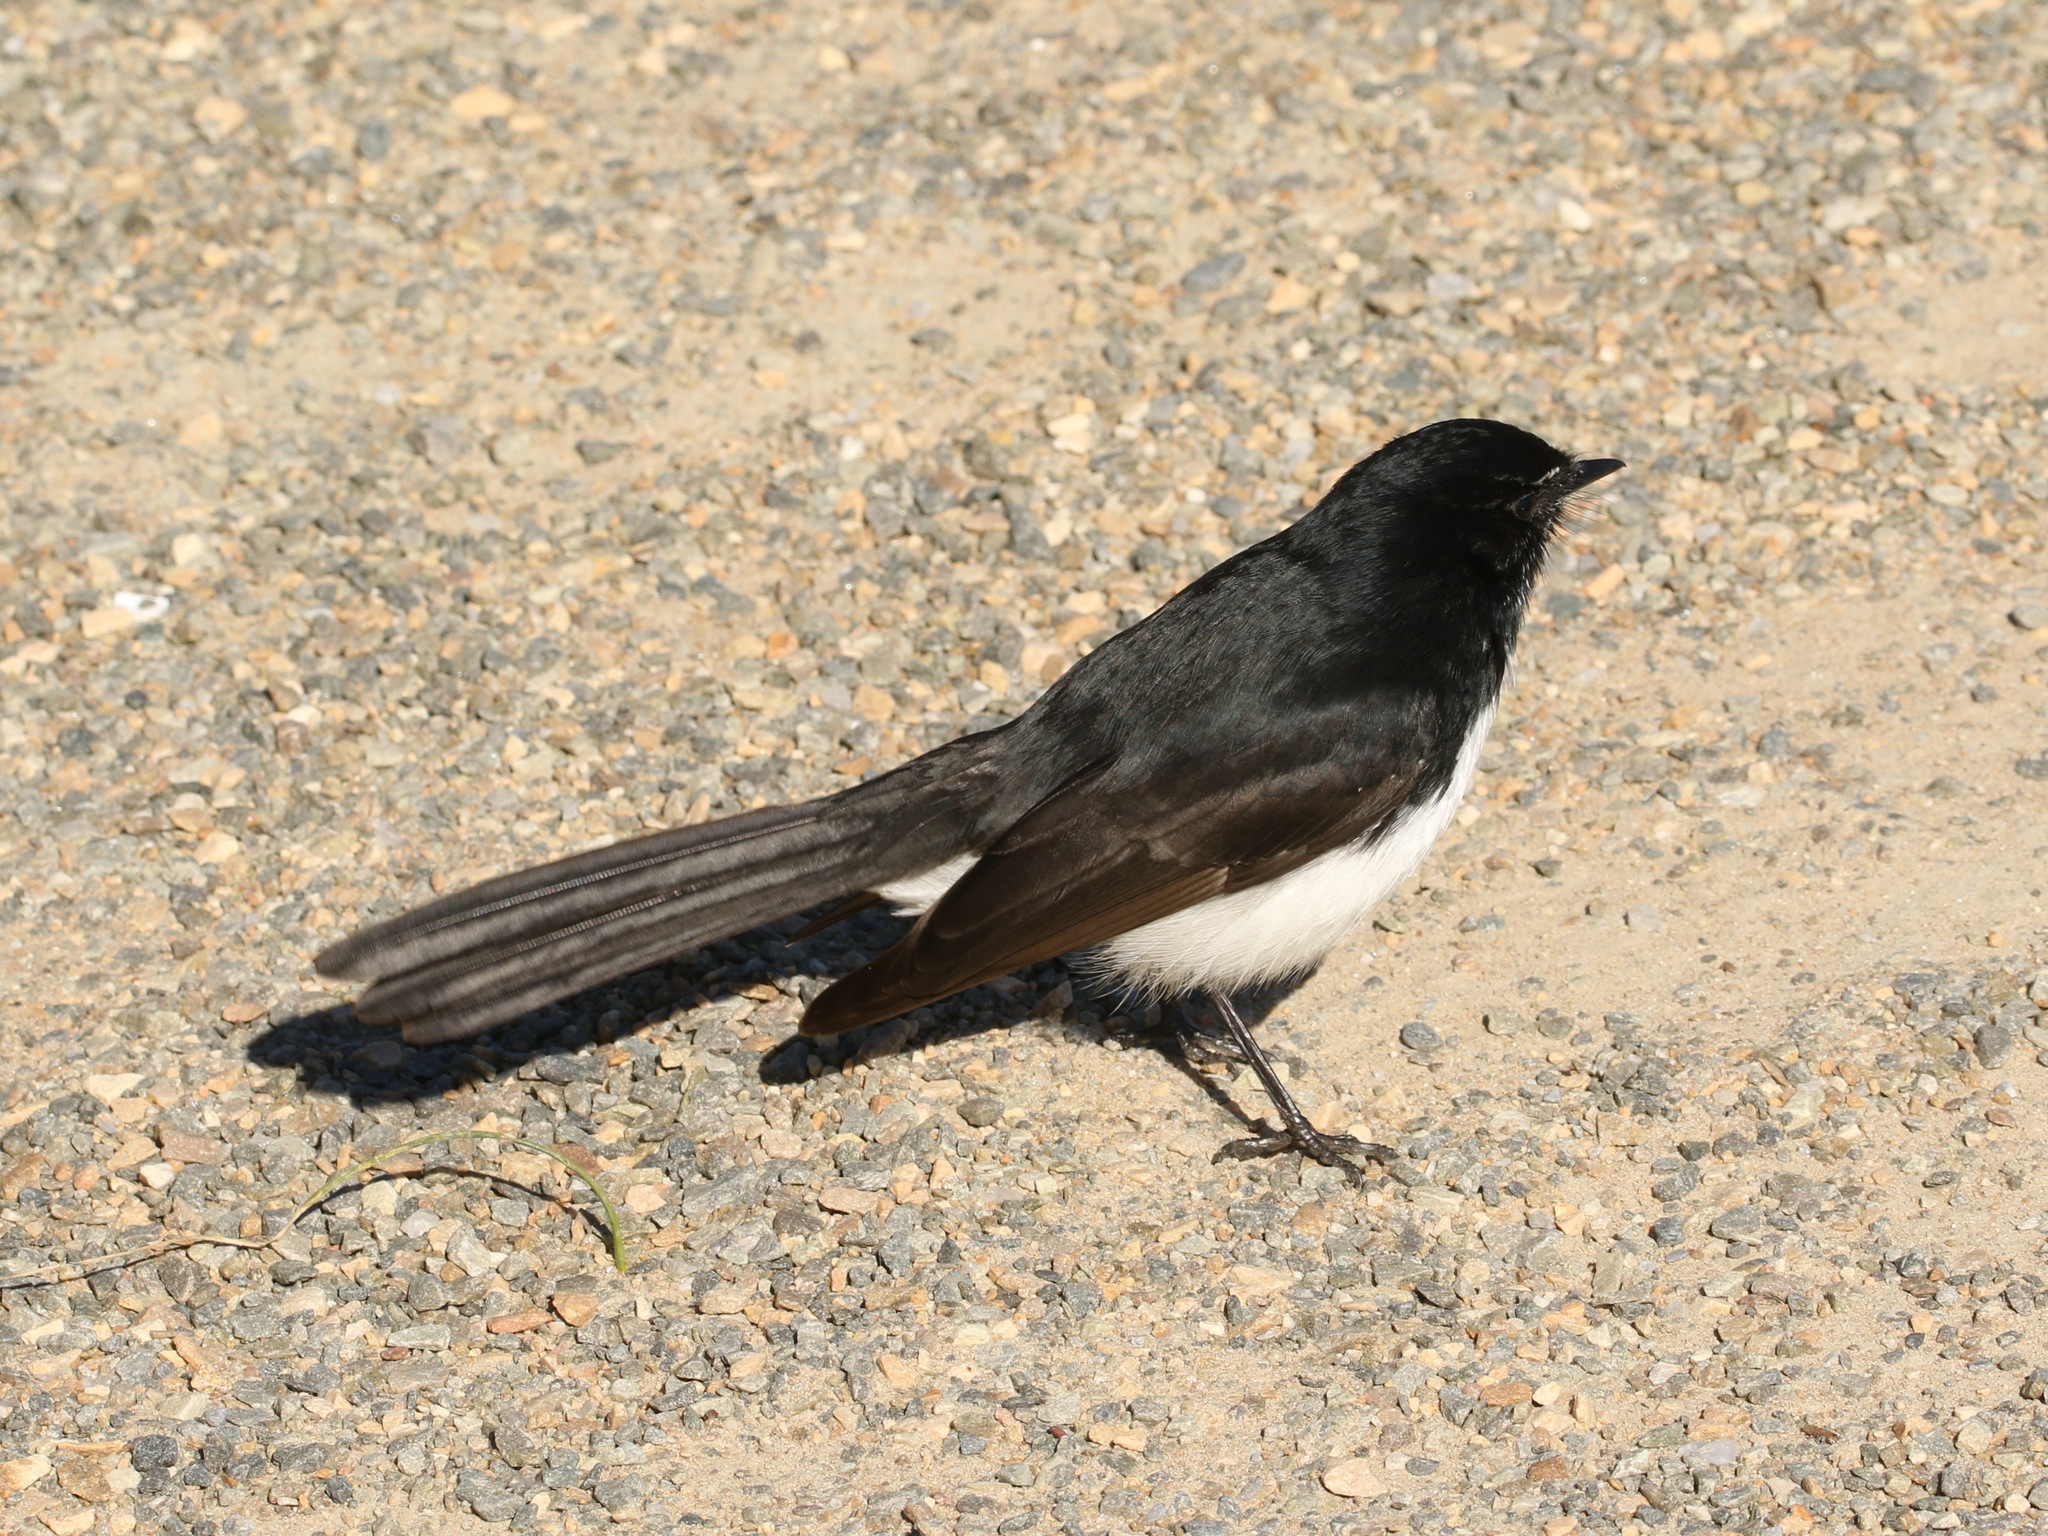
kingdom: Animalia
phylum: Chordata
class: Aves
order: Passeriformes
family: Rhipiduridae
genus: Rhipidura
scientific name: Rhipidura leucophrys
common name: Willie wagtail
